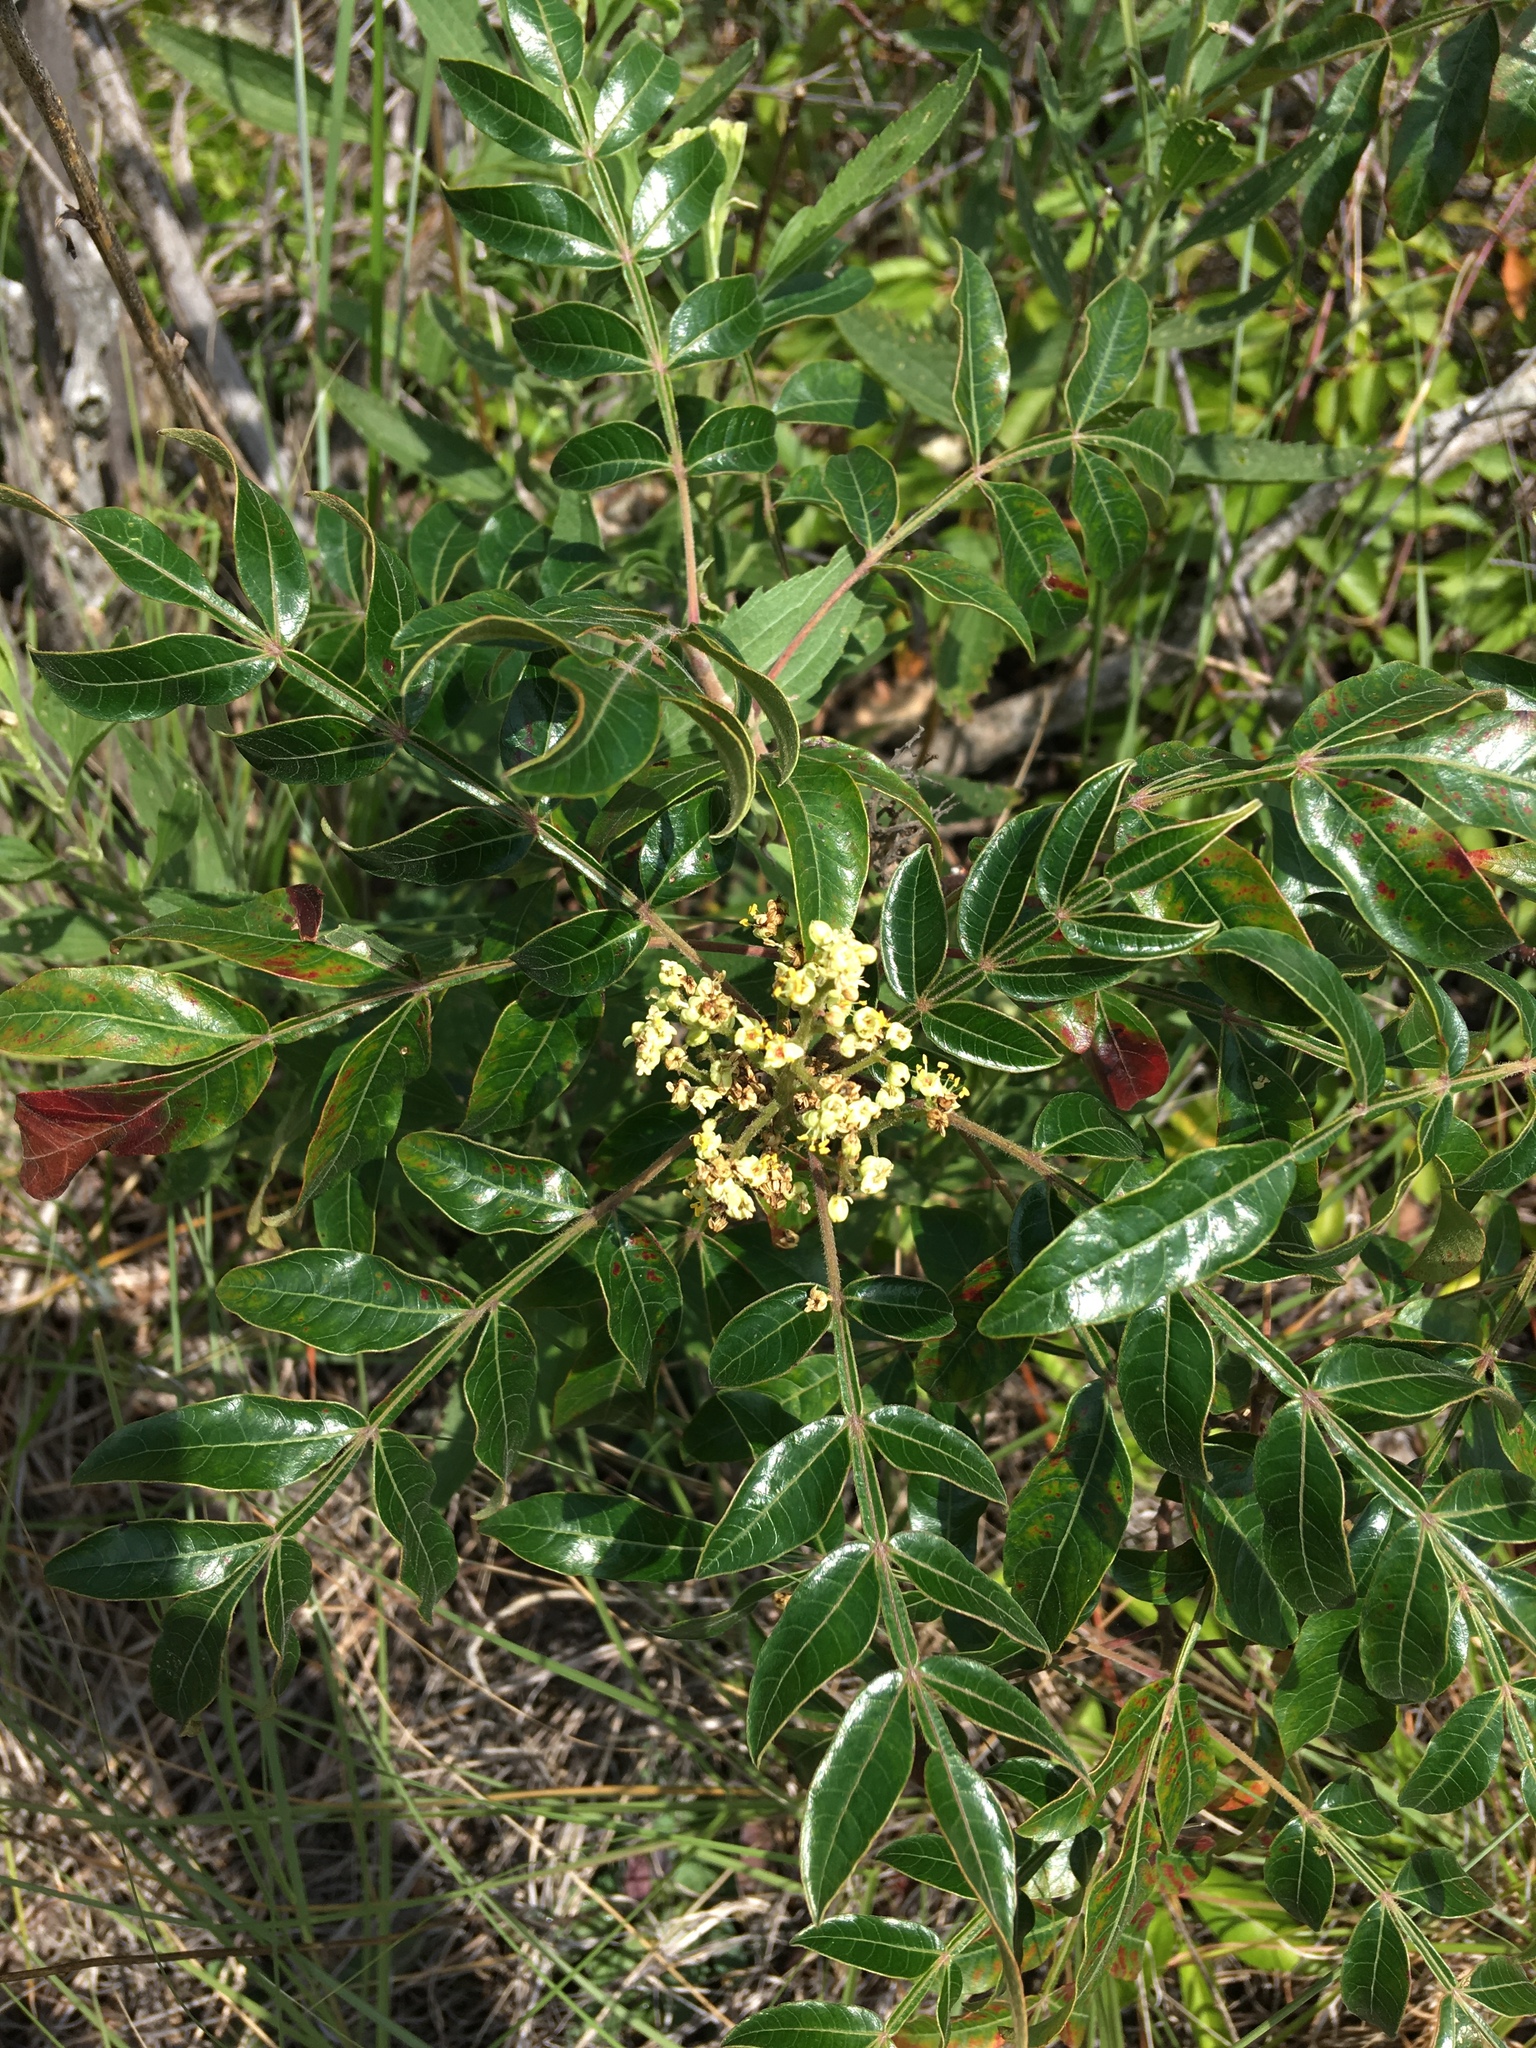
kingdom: Plantae
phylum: Tracheophyta
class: Magnoliopsida
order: Sapindales
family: Anacardiaceae
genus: Rhus
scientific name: Rhus copallina
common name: Shining sumac
